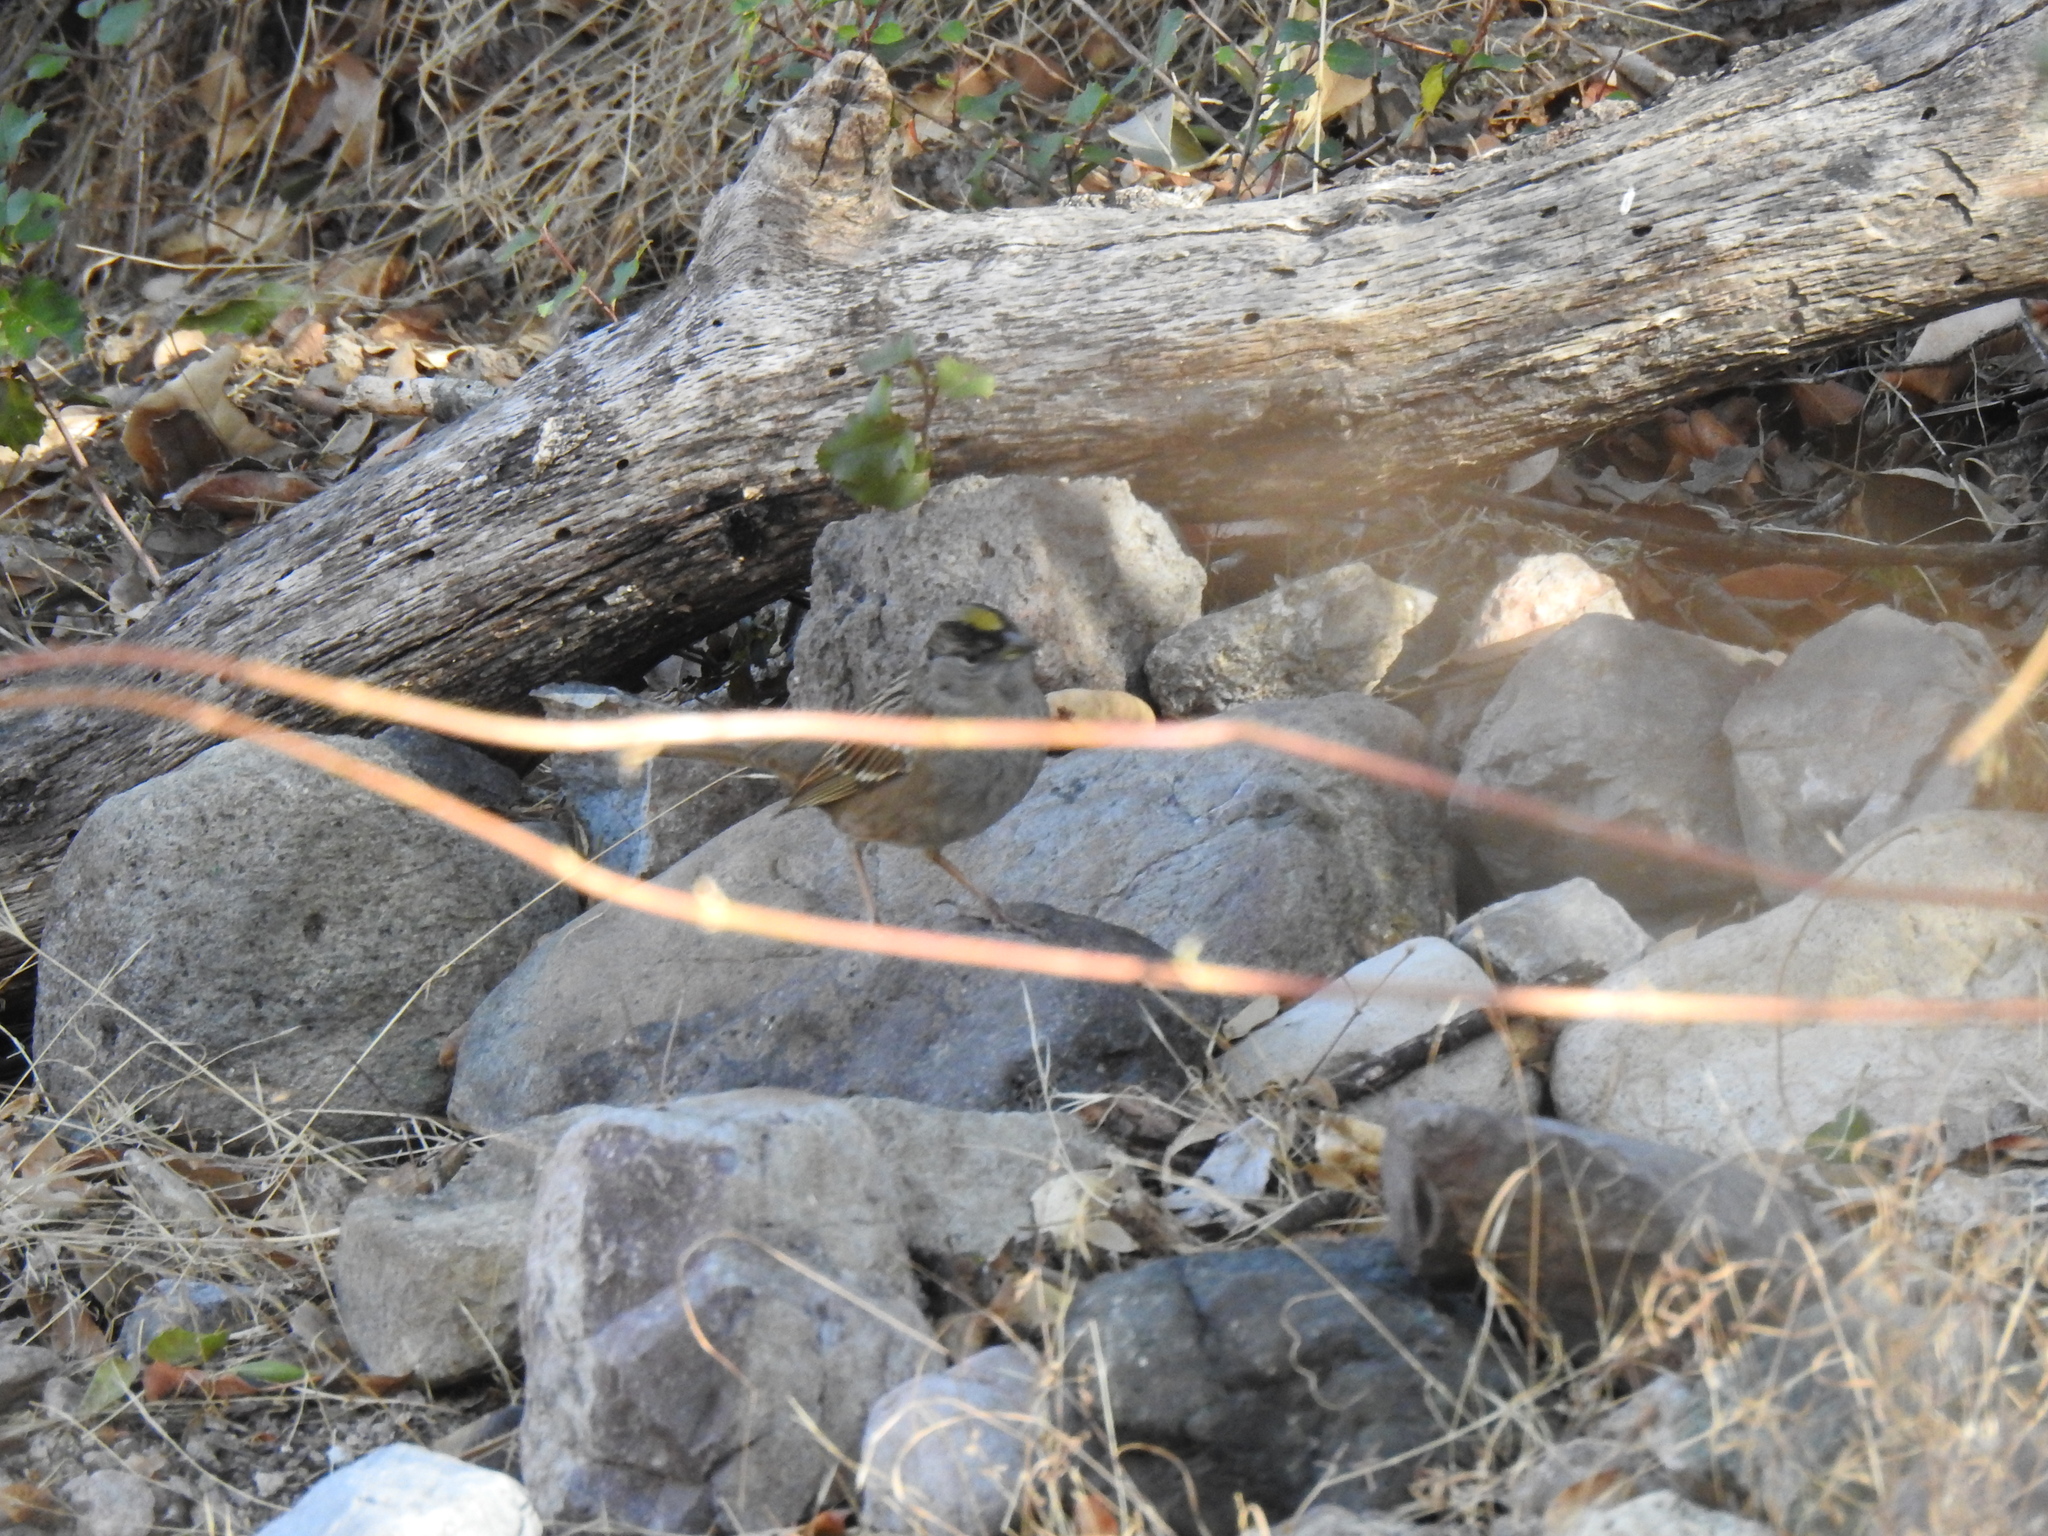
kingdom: Animalia
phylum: Chordata
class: Aves
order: Passeriformes
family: Passerellidae
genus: Zonotrichia
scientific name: Zonotrichia atricapilla
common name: Golden-crowned sparrow
